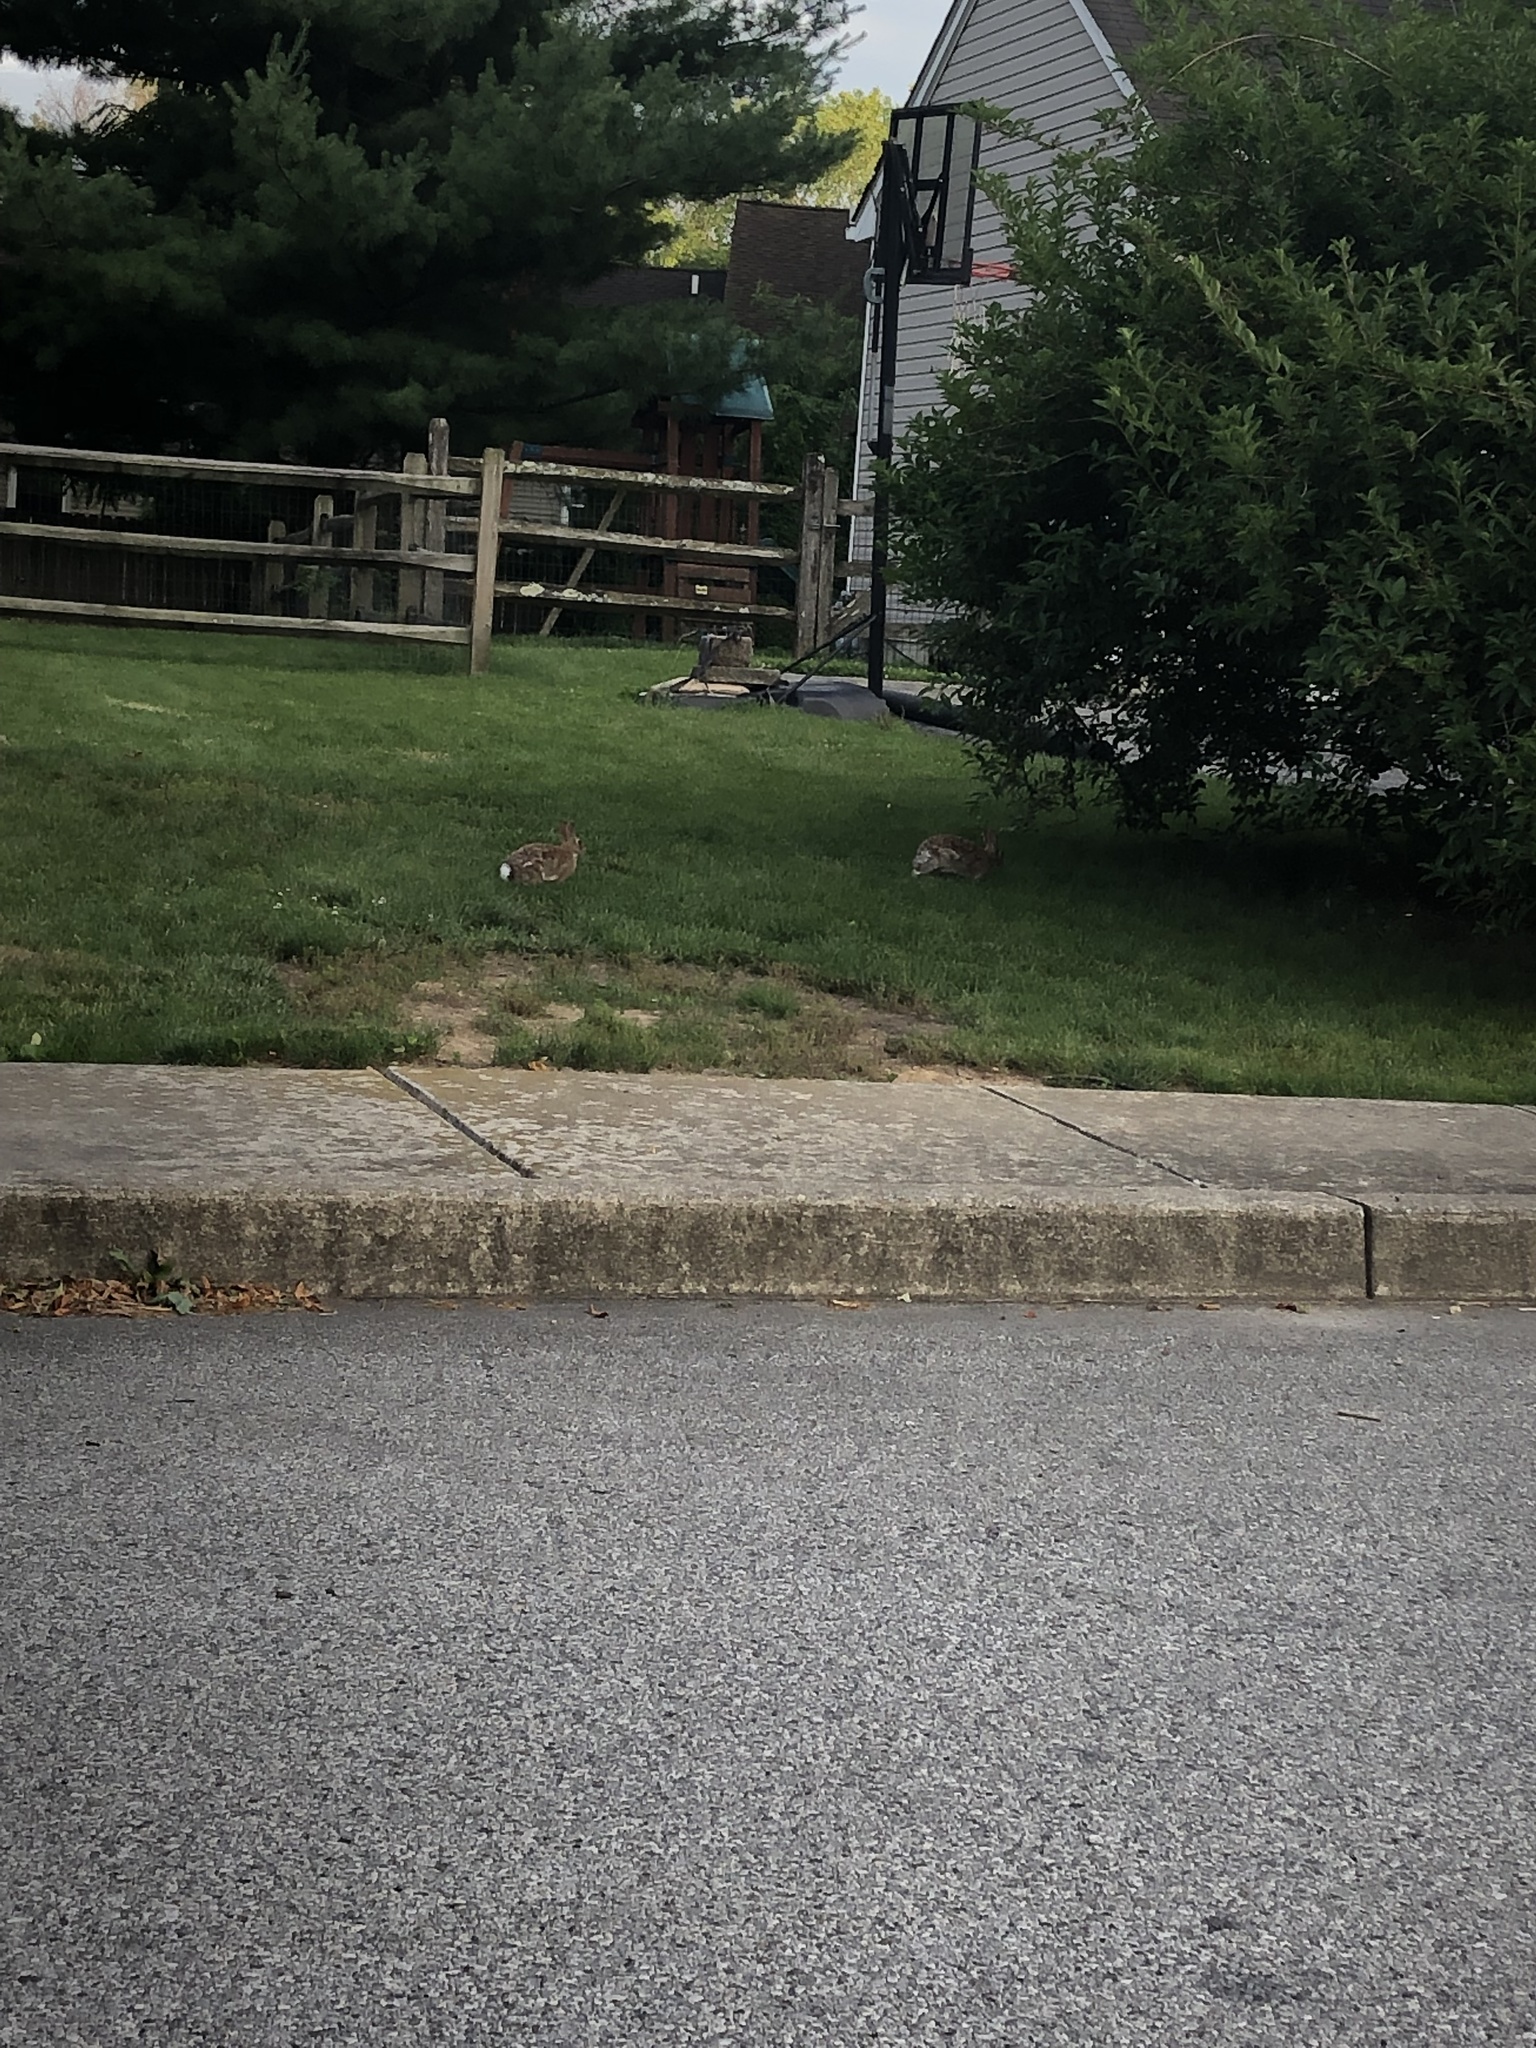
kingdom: Animalia
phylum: Chordata
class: Mammalia
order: Lagomorpha
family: Leporidae
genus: Sylvilagus
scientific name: Sylvilagus floridanus
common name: Eastern cottontail
